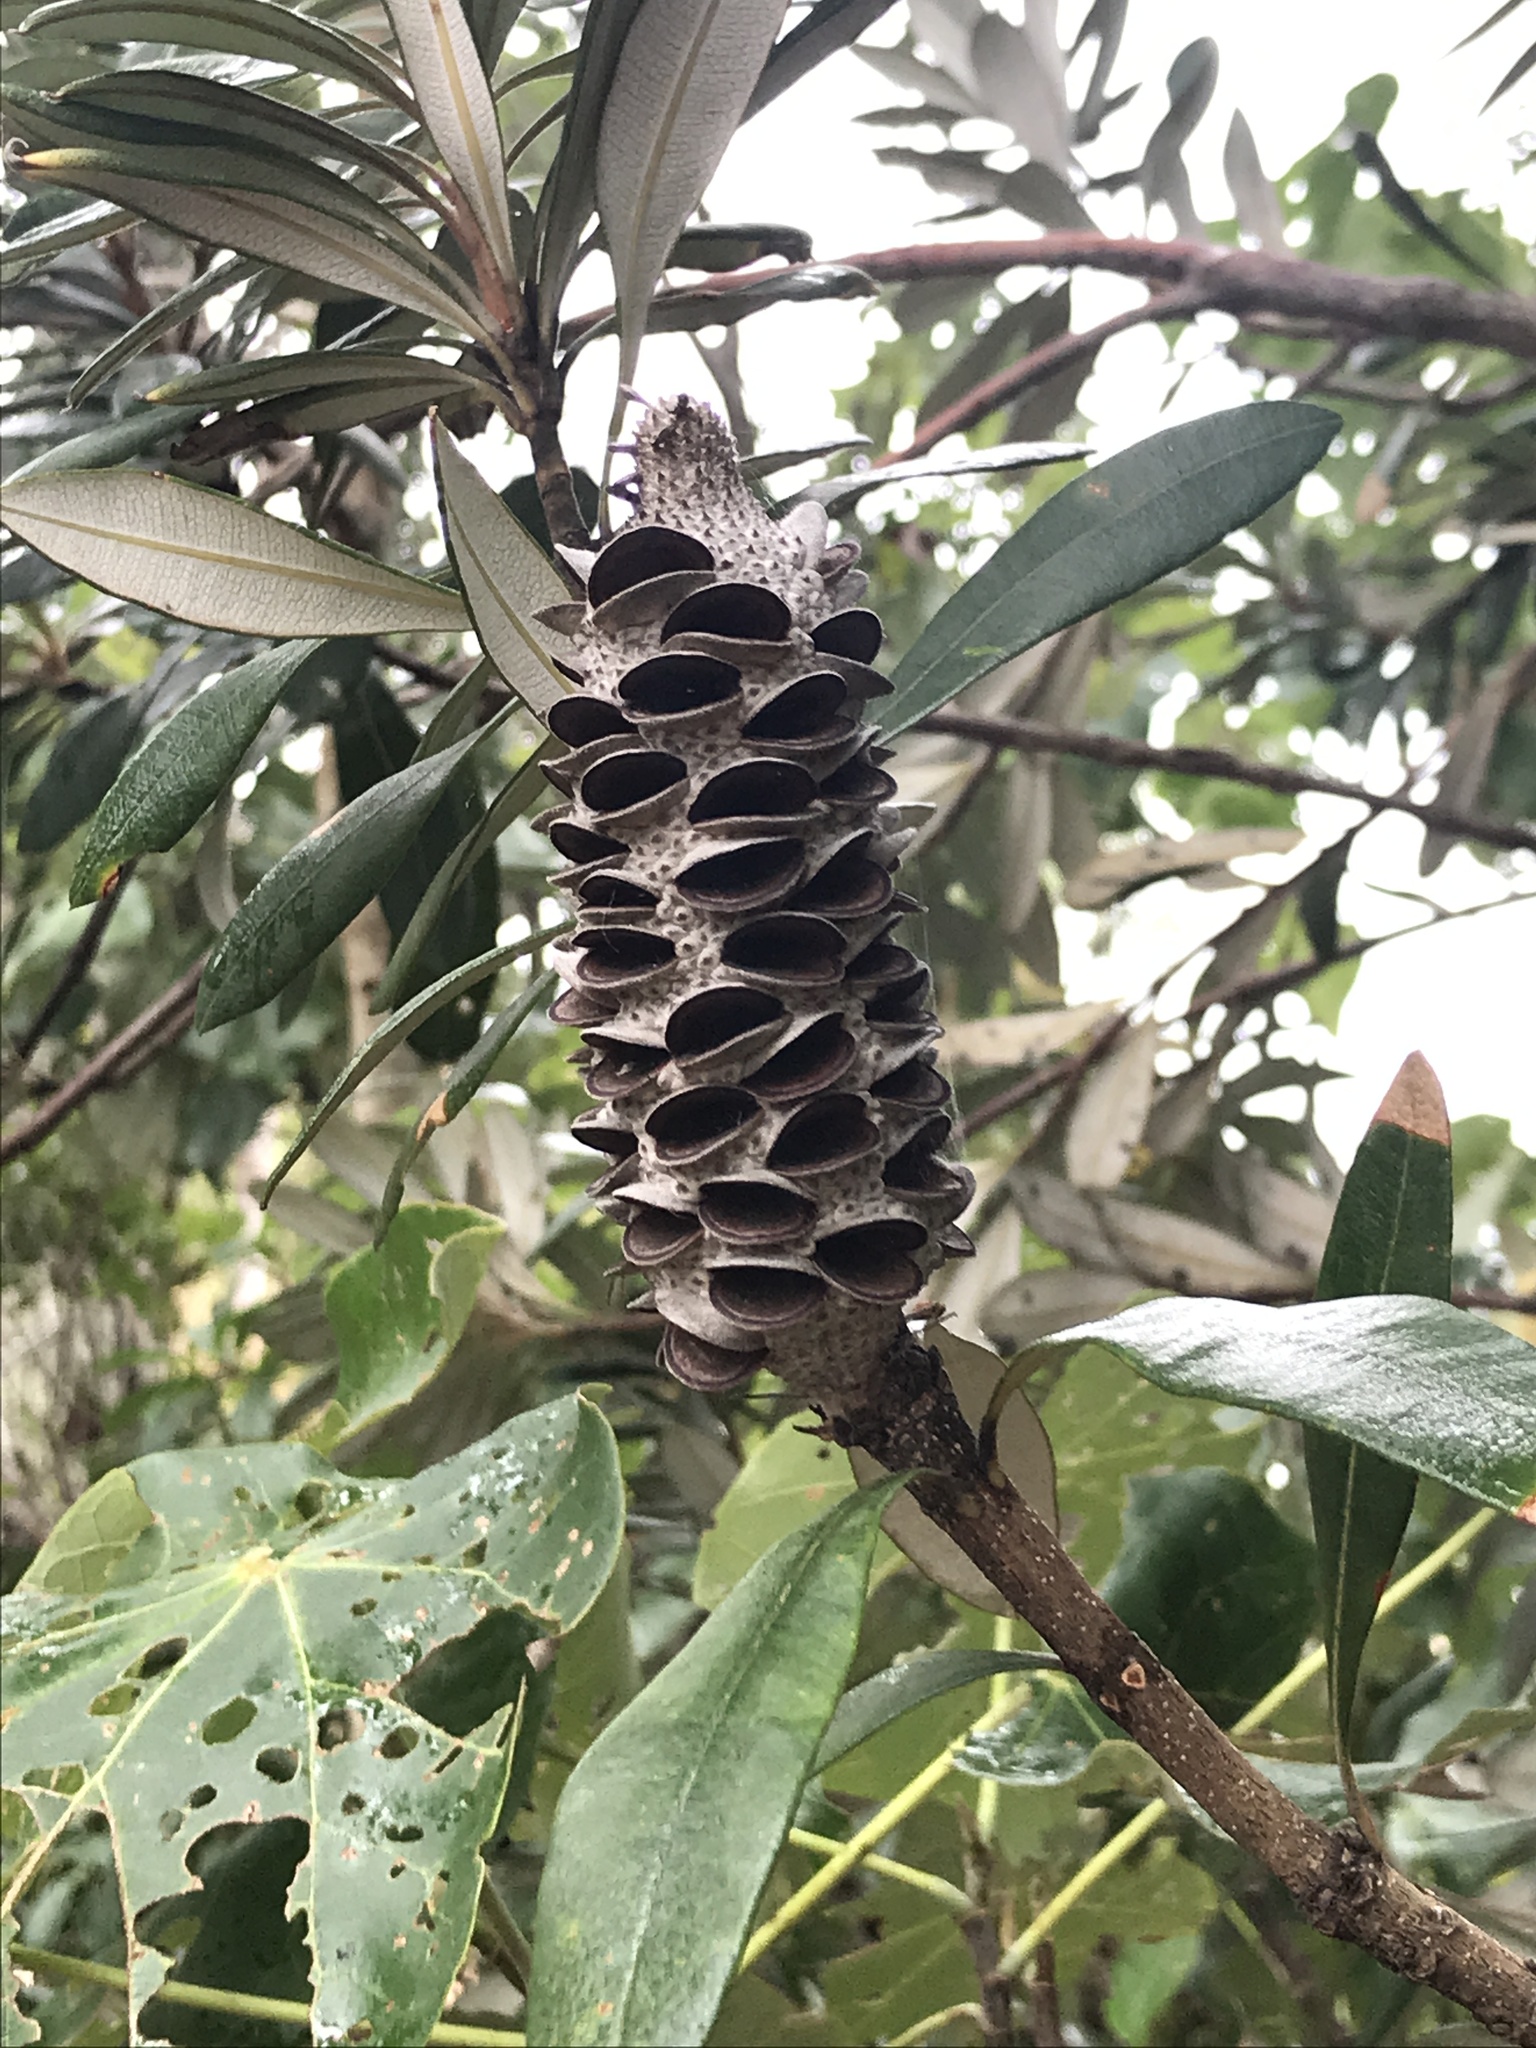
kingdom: Plantae
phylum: Tracheophyta
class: Magnoliopsida
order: Proteales
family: Proteaceae
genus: Banksia
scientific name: Banksia integrifolia
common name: White-honeysuckle
